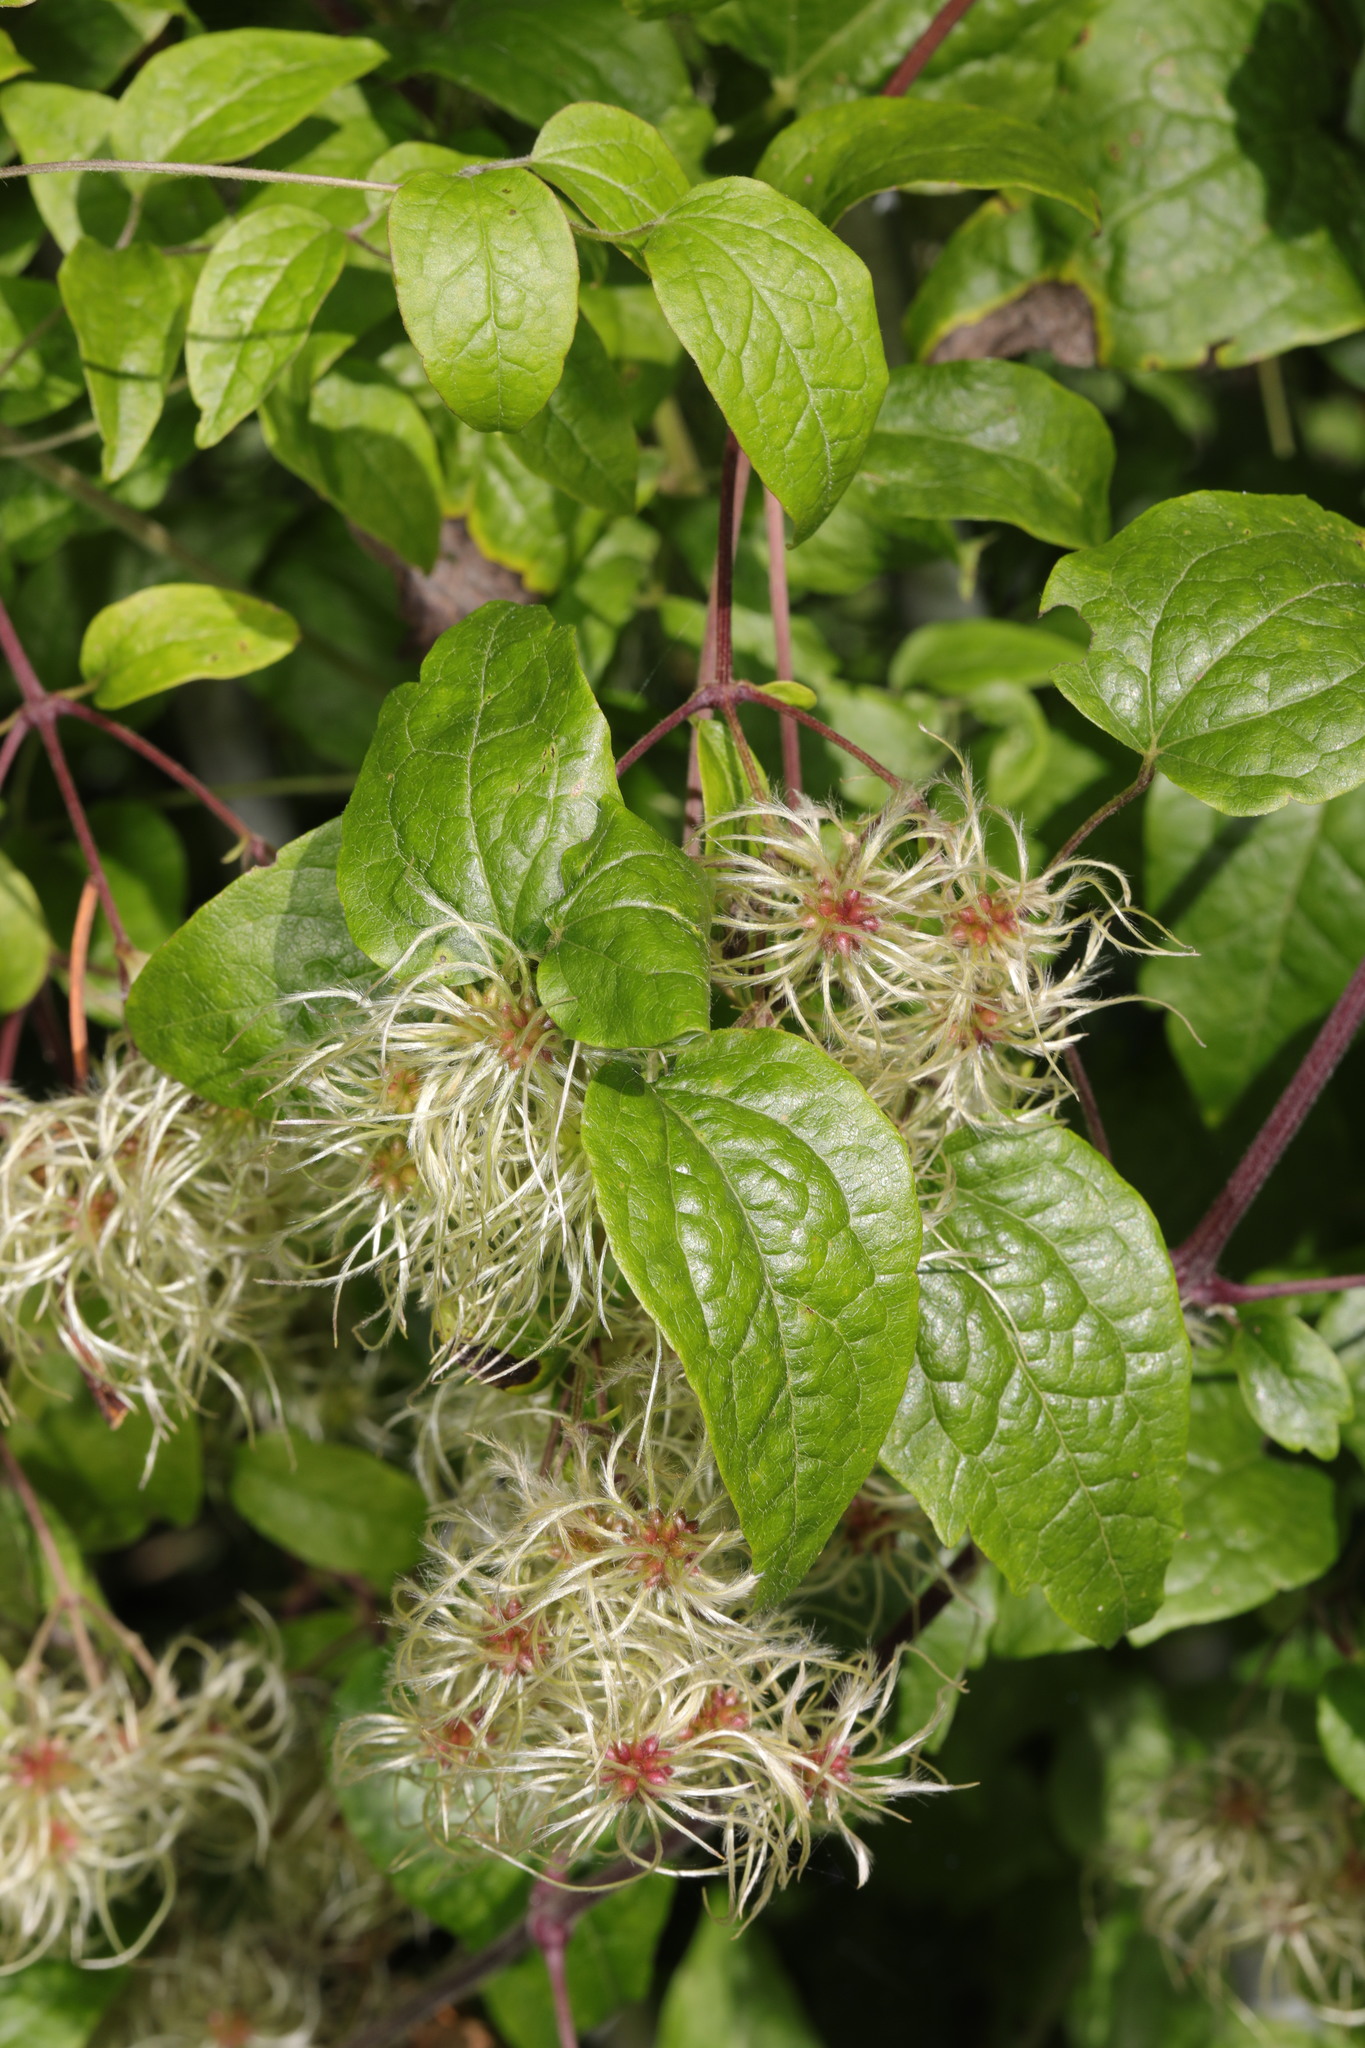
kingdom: Plantae
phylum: Tracheophyta
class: Magnoliopsida
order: Ranunculales
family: Ranunculaceae
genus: Clematis
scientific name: Clematis vitalba
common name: Evergreen clematis
